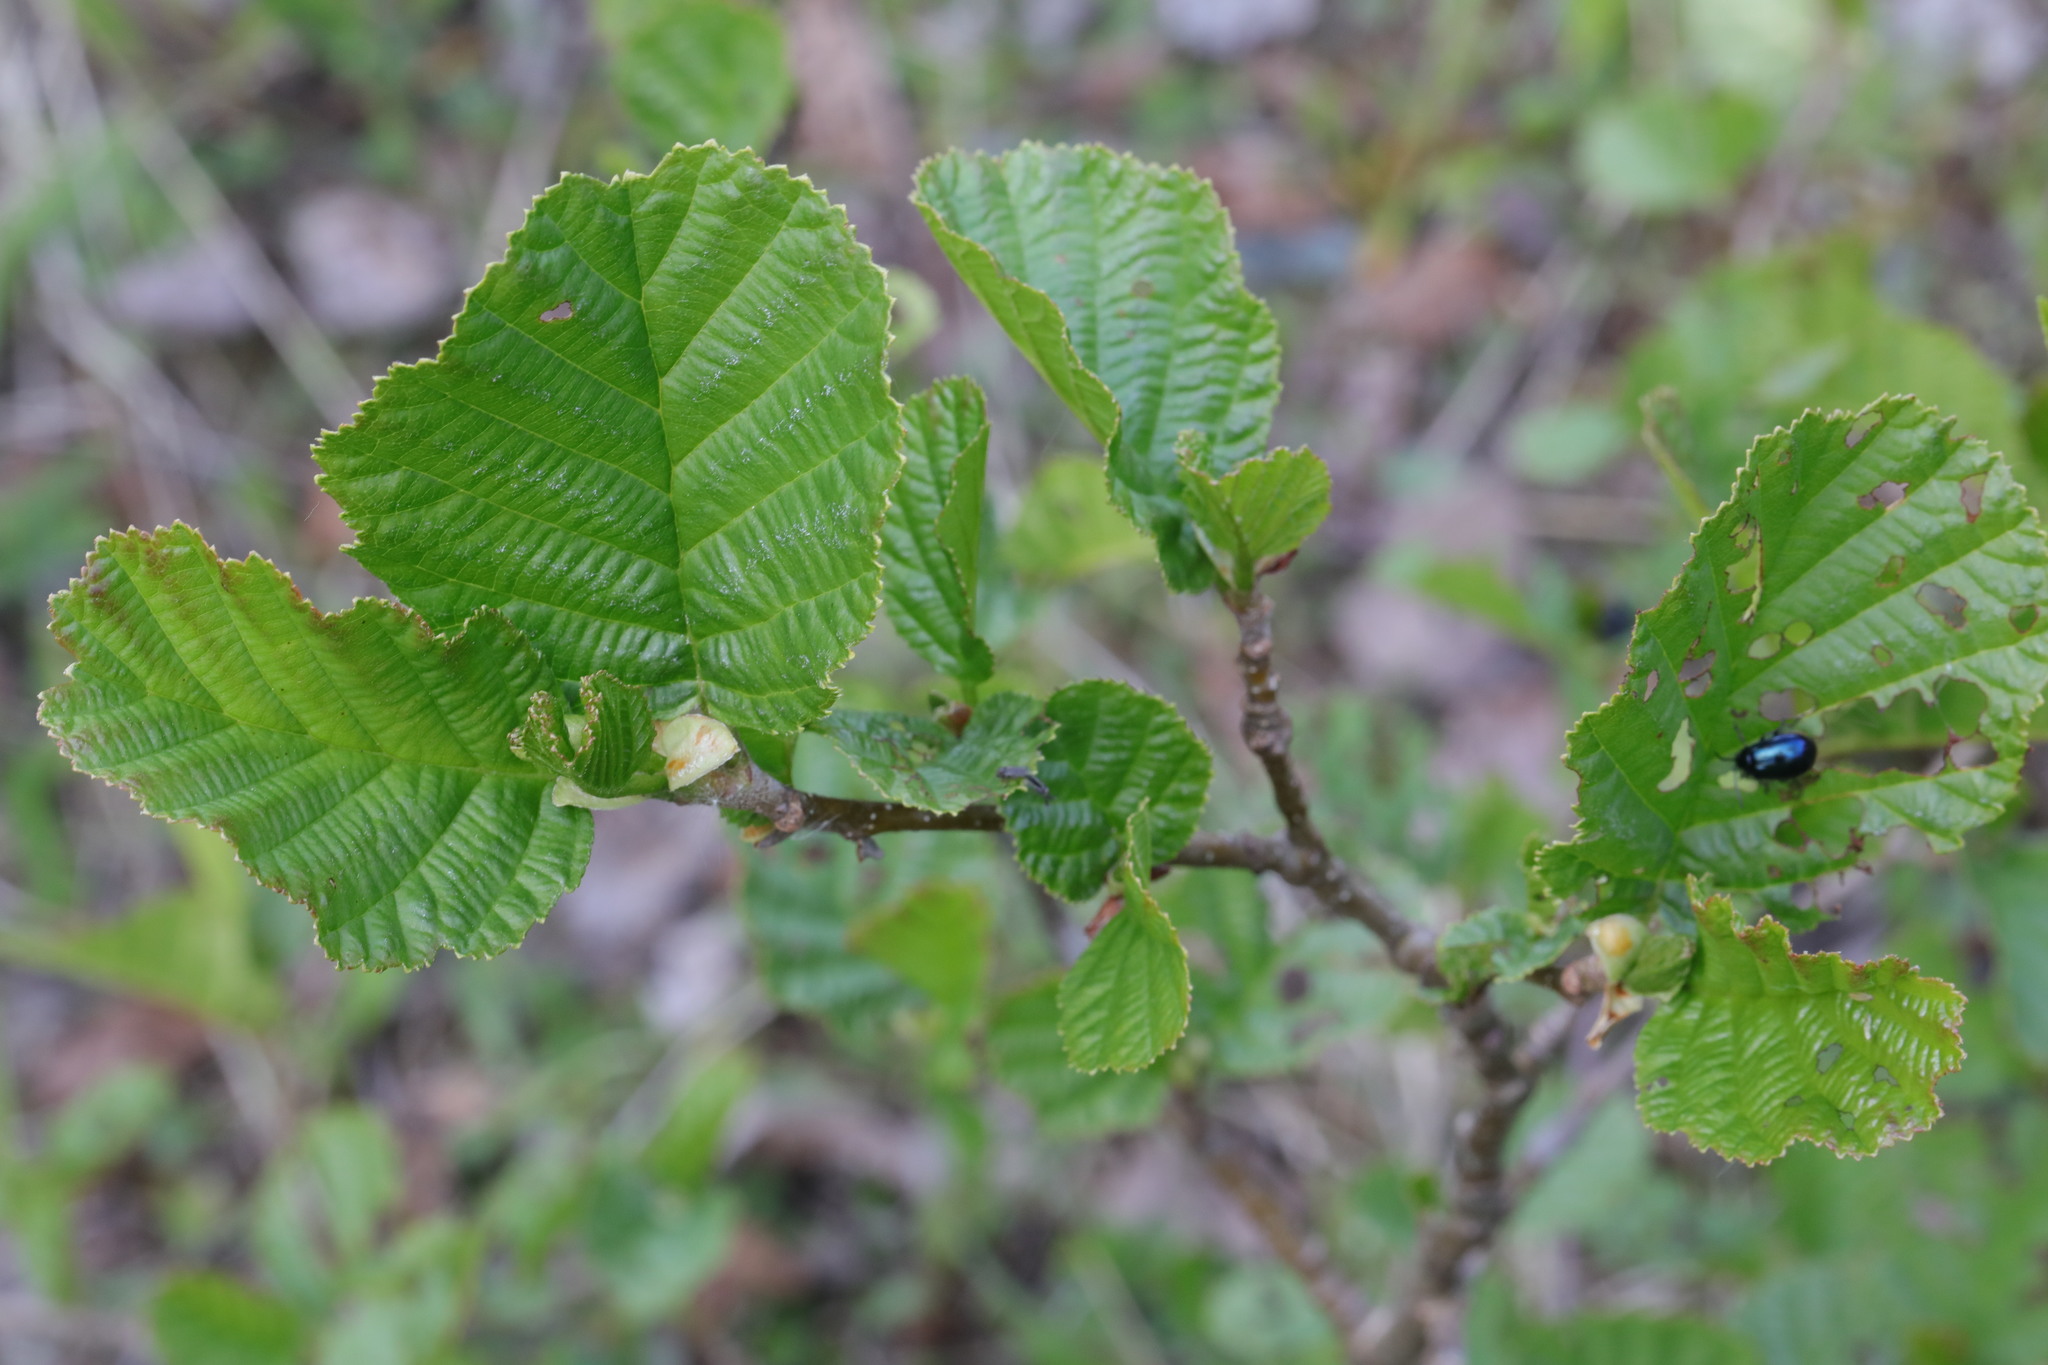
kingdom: Plantae
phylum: Tracheophyta
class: Magnoliopsida
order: Fagales
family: Betulaceae
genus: Alnus
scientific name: Alnus glutinosa
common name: Black alder
